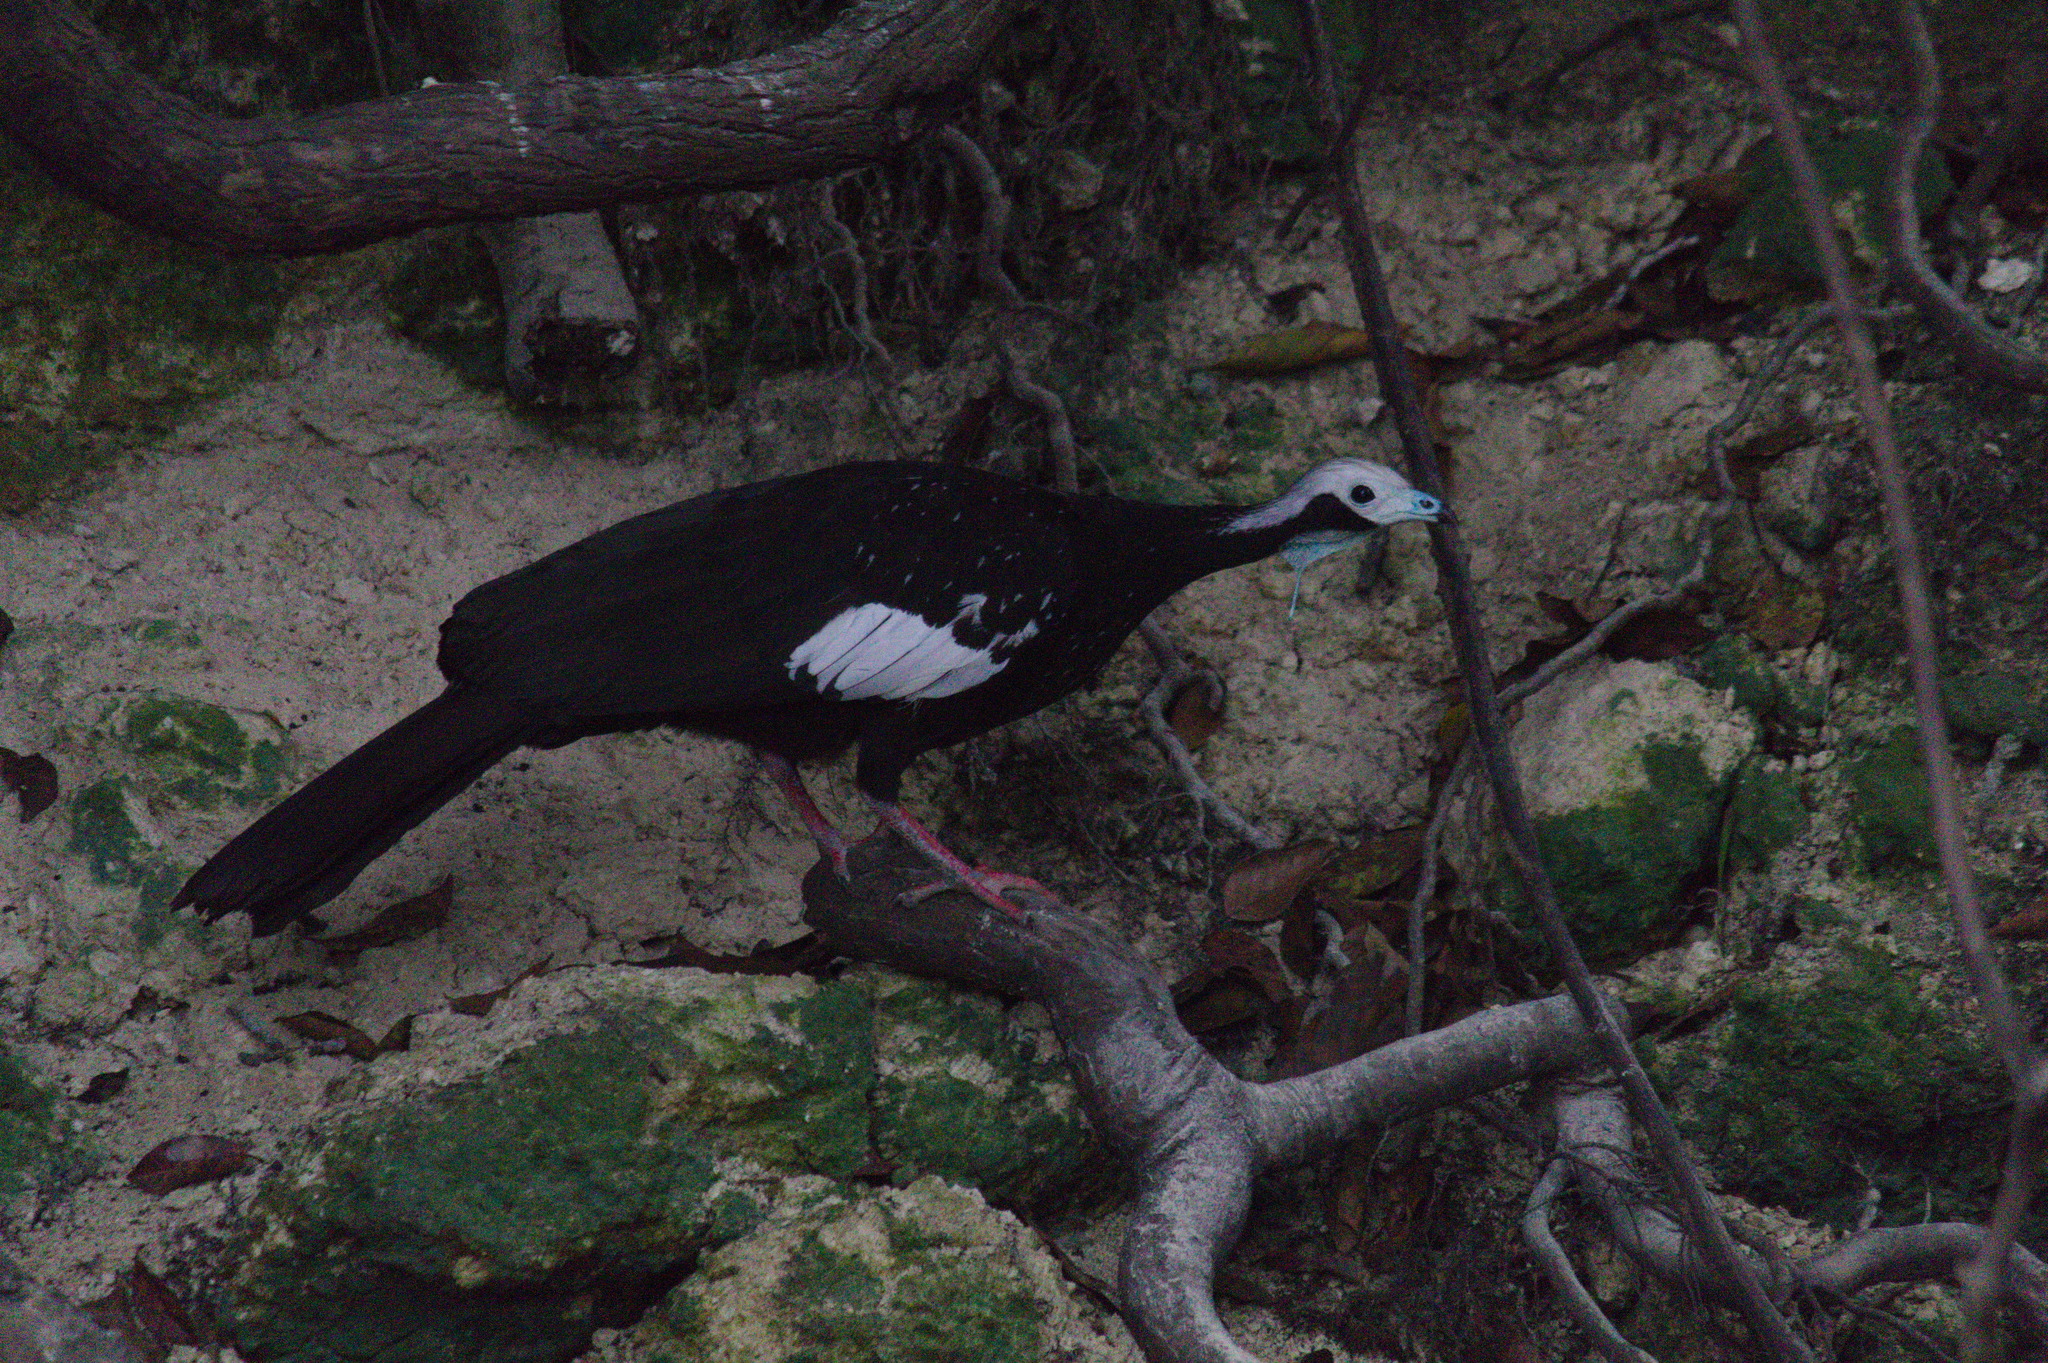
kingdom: Animalia
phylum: Chordata
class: Aves
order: Galliformes
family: Cracidae
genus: Pipile
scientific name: Pipile cumanensis
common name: Blue-throated piping-guan
